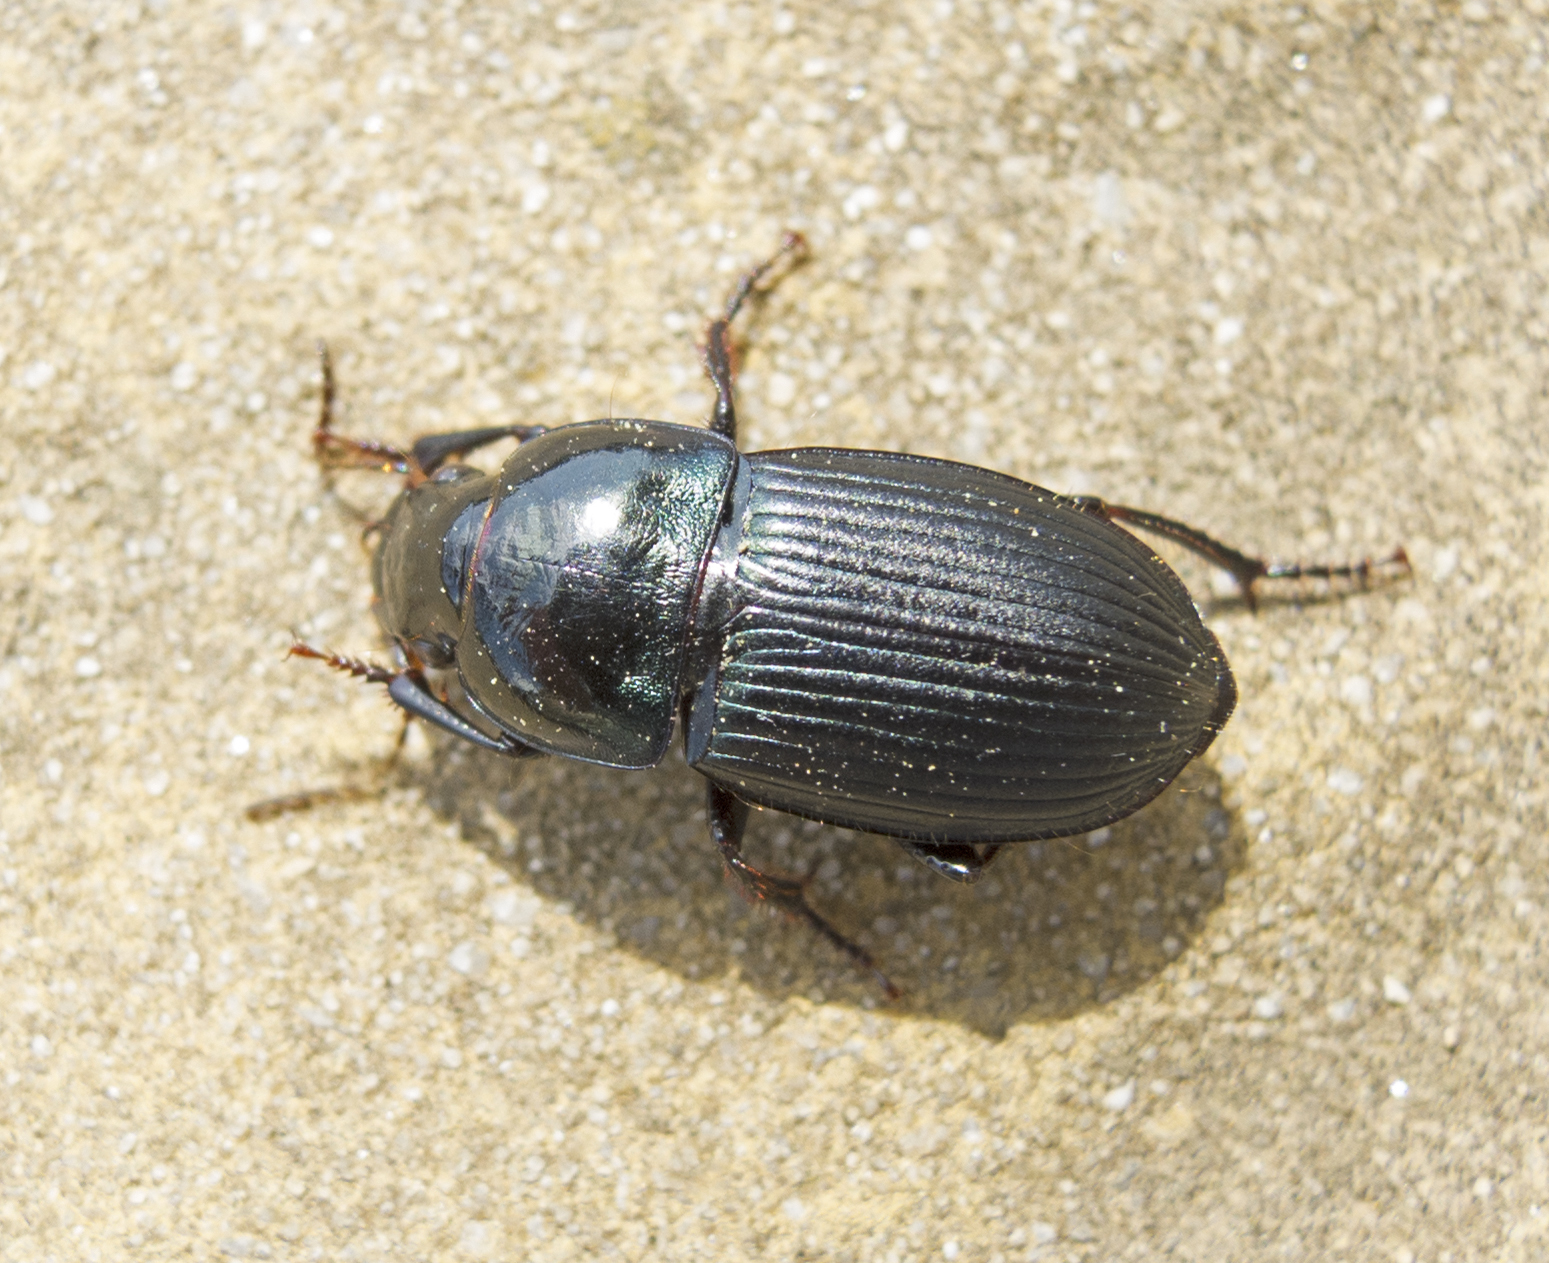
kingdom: Animalia
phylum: Arthropoda
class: Insecta
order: Coleoptera
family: Carabidae
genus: Harpalus
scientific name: Harpalus dimidiatus
